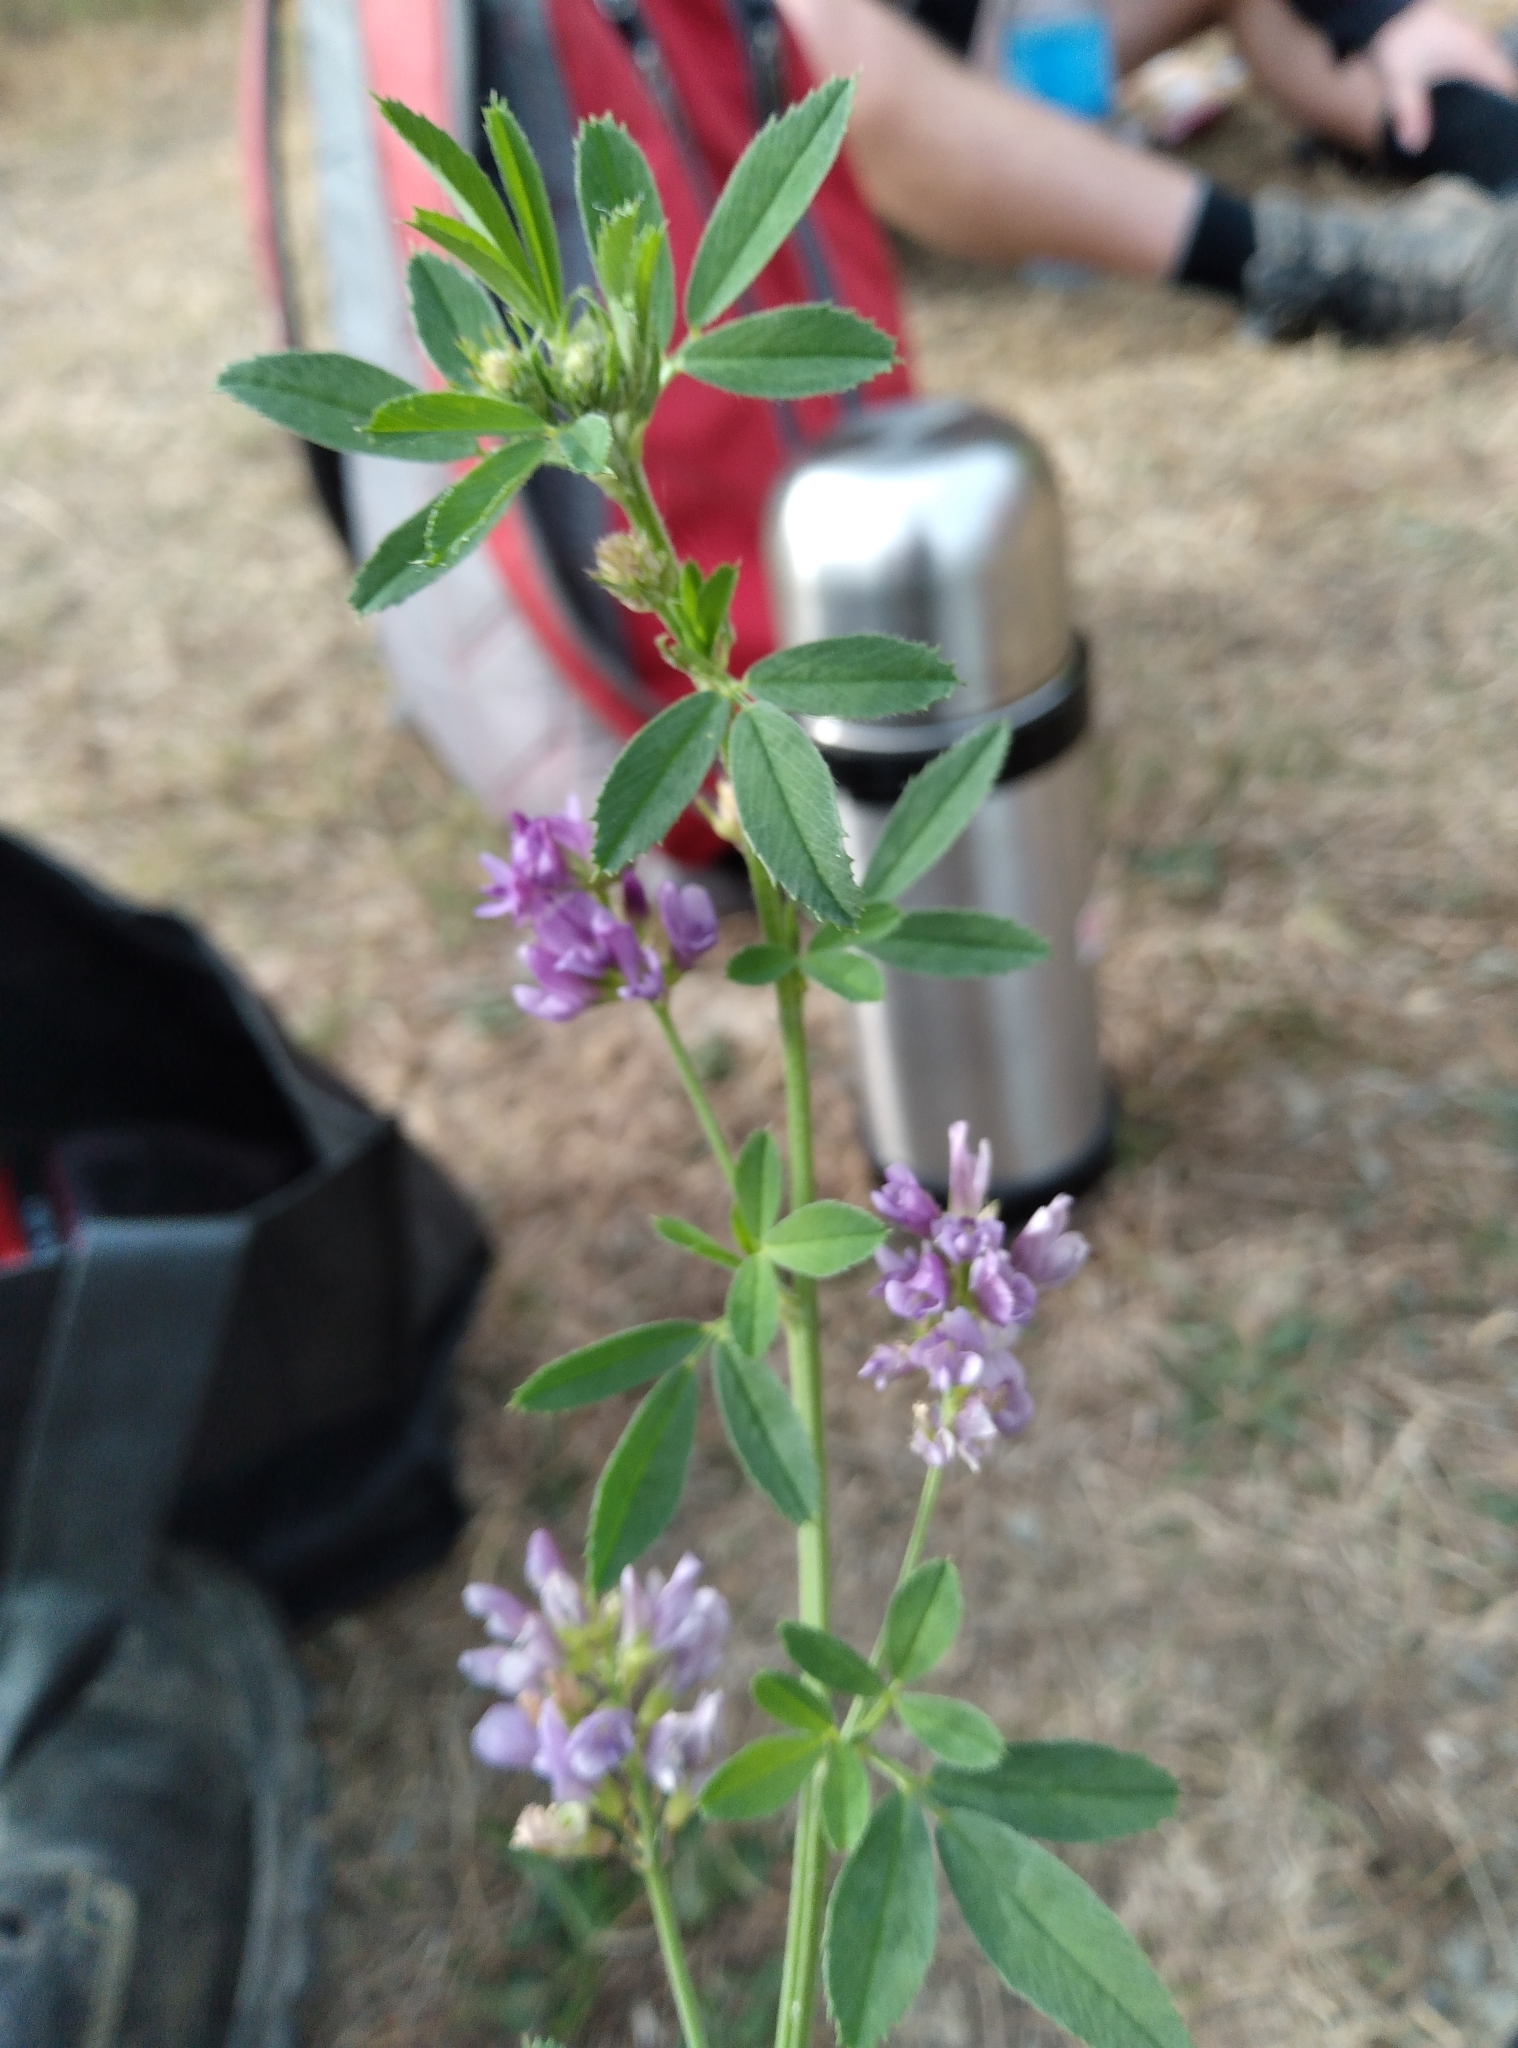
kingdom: Plantae
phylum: Tracheophyta
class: Magnoliopsida
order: Fabales
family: Fabaceae
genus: Medicago
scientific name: Medicago sativa
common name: Alfalfa
